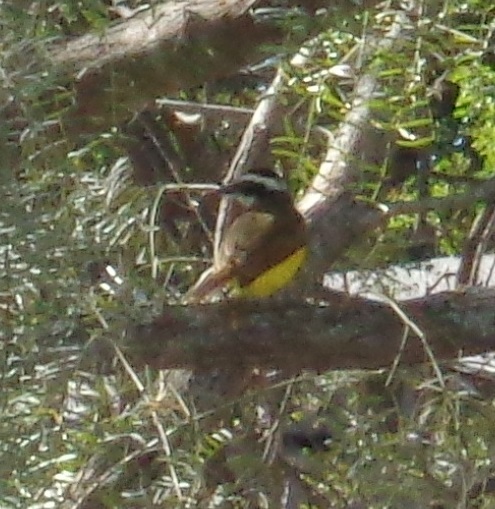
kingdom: Animalia
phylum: Chordata
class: Aves
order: Passeriformes
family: Tyrannidae
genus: Pitangus
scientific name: Pitangus sulphuratus
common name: Great kiskadee
